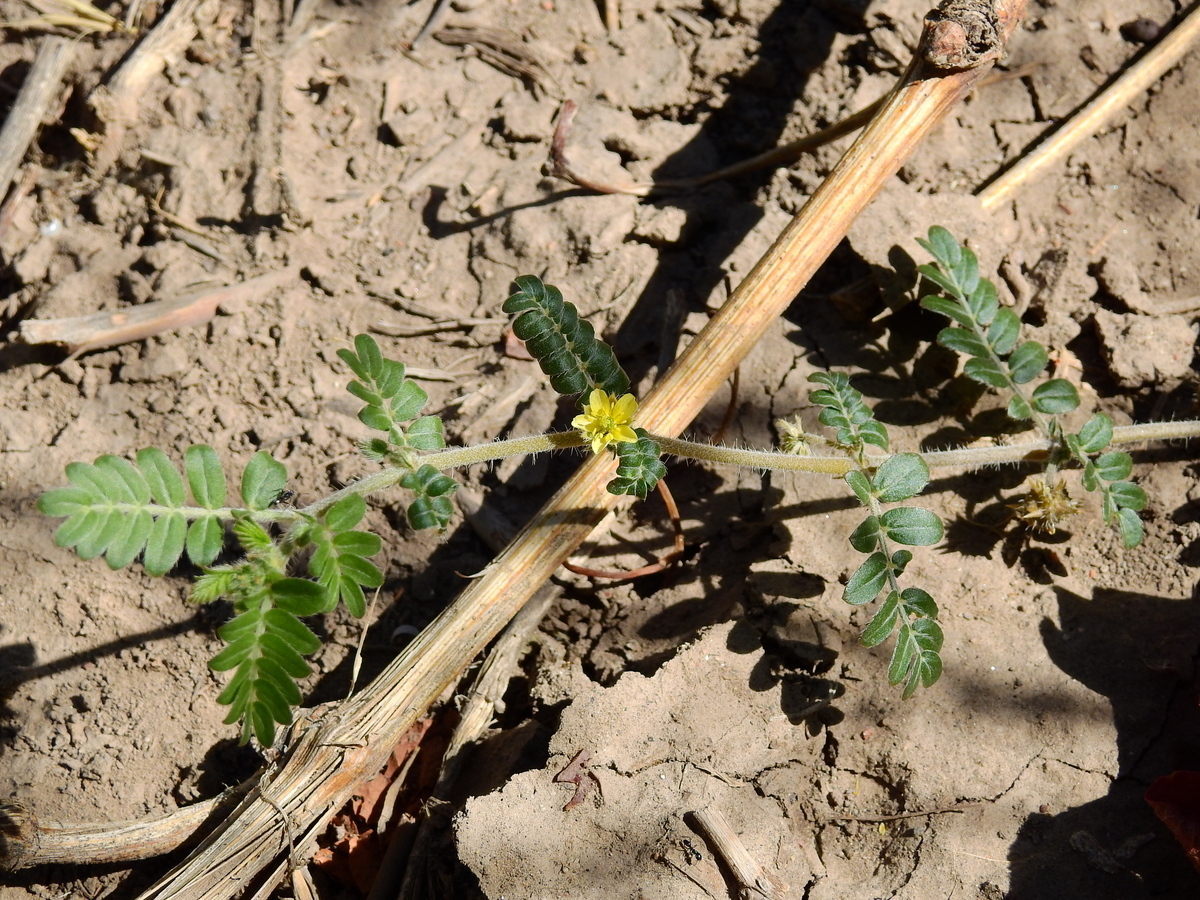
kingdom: Plantae
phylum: Tracheophyta
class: Magnoliopsida
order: Zygophyllales
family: Zygophyllaceae
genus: Tribulus
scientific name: Tribulus terrestris
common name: Puncturevine
